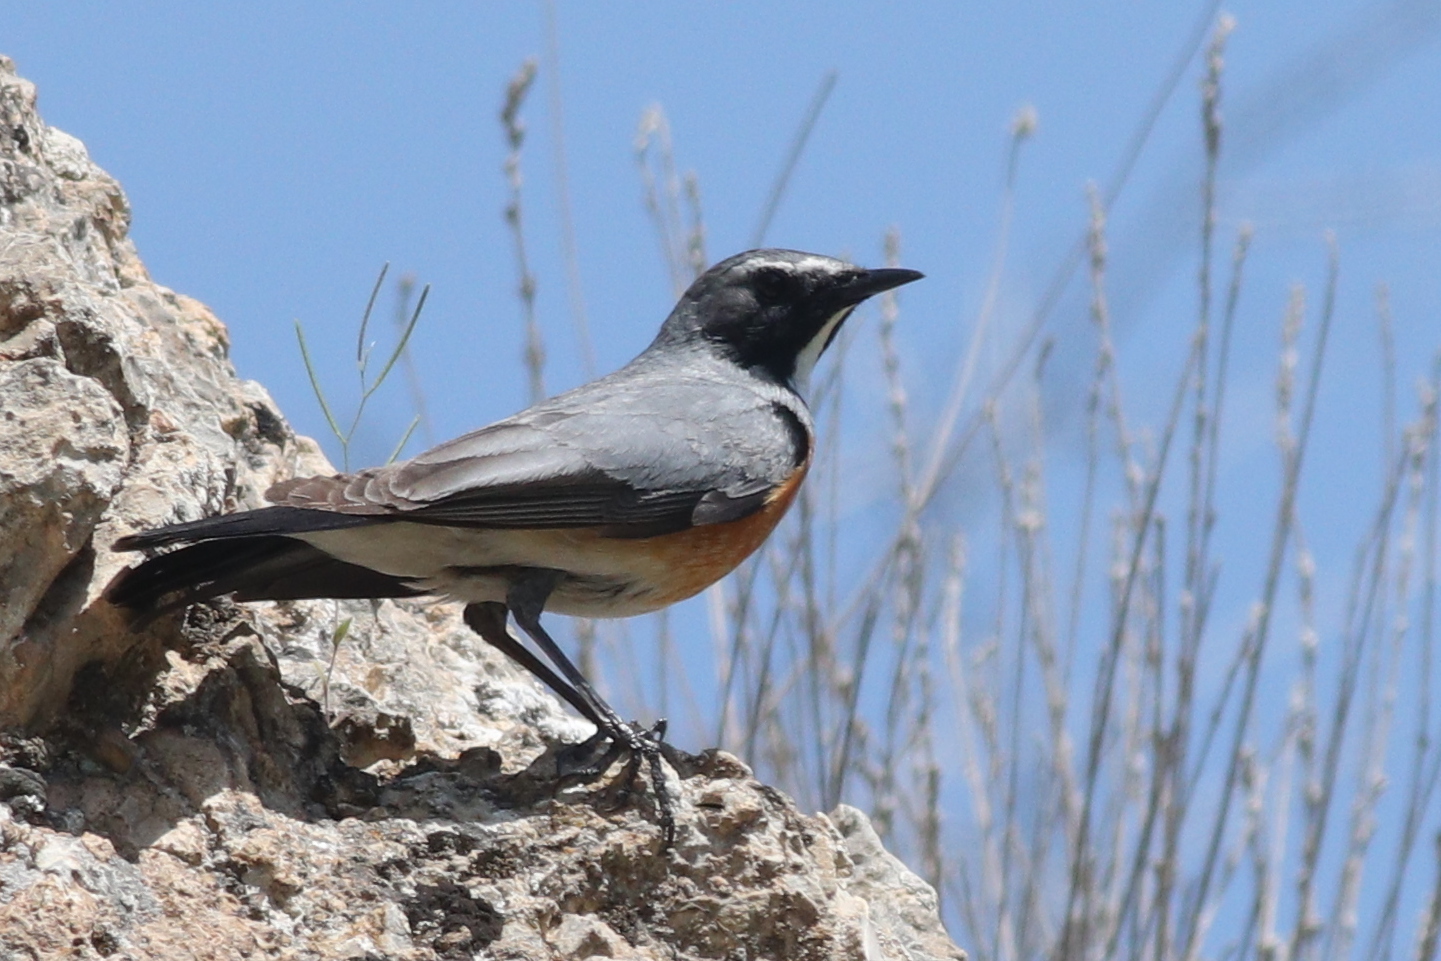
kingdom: Animalia
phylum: Chordata
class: Aves
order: Passeriformes
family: Muscicapidae
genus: Irania
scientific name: Irania gutturalis
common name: White-throated robin
